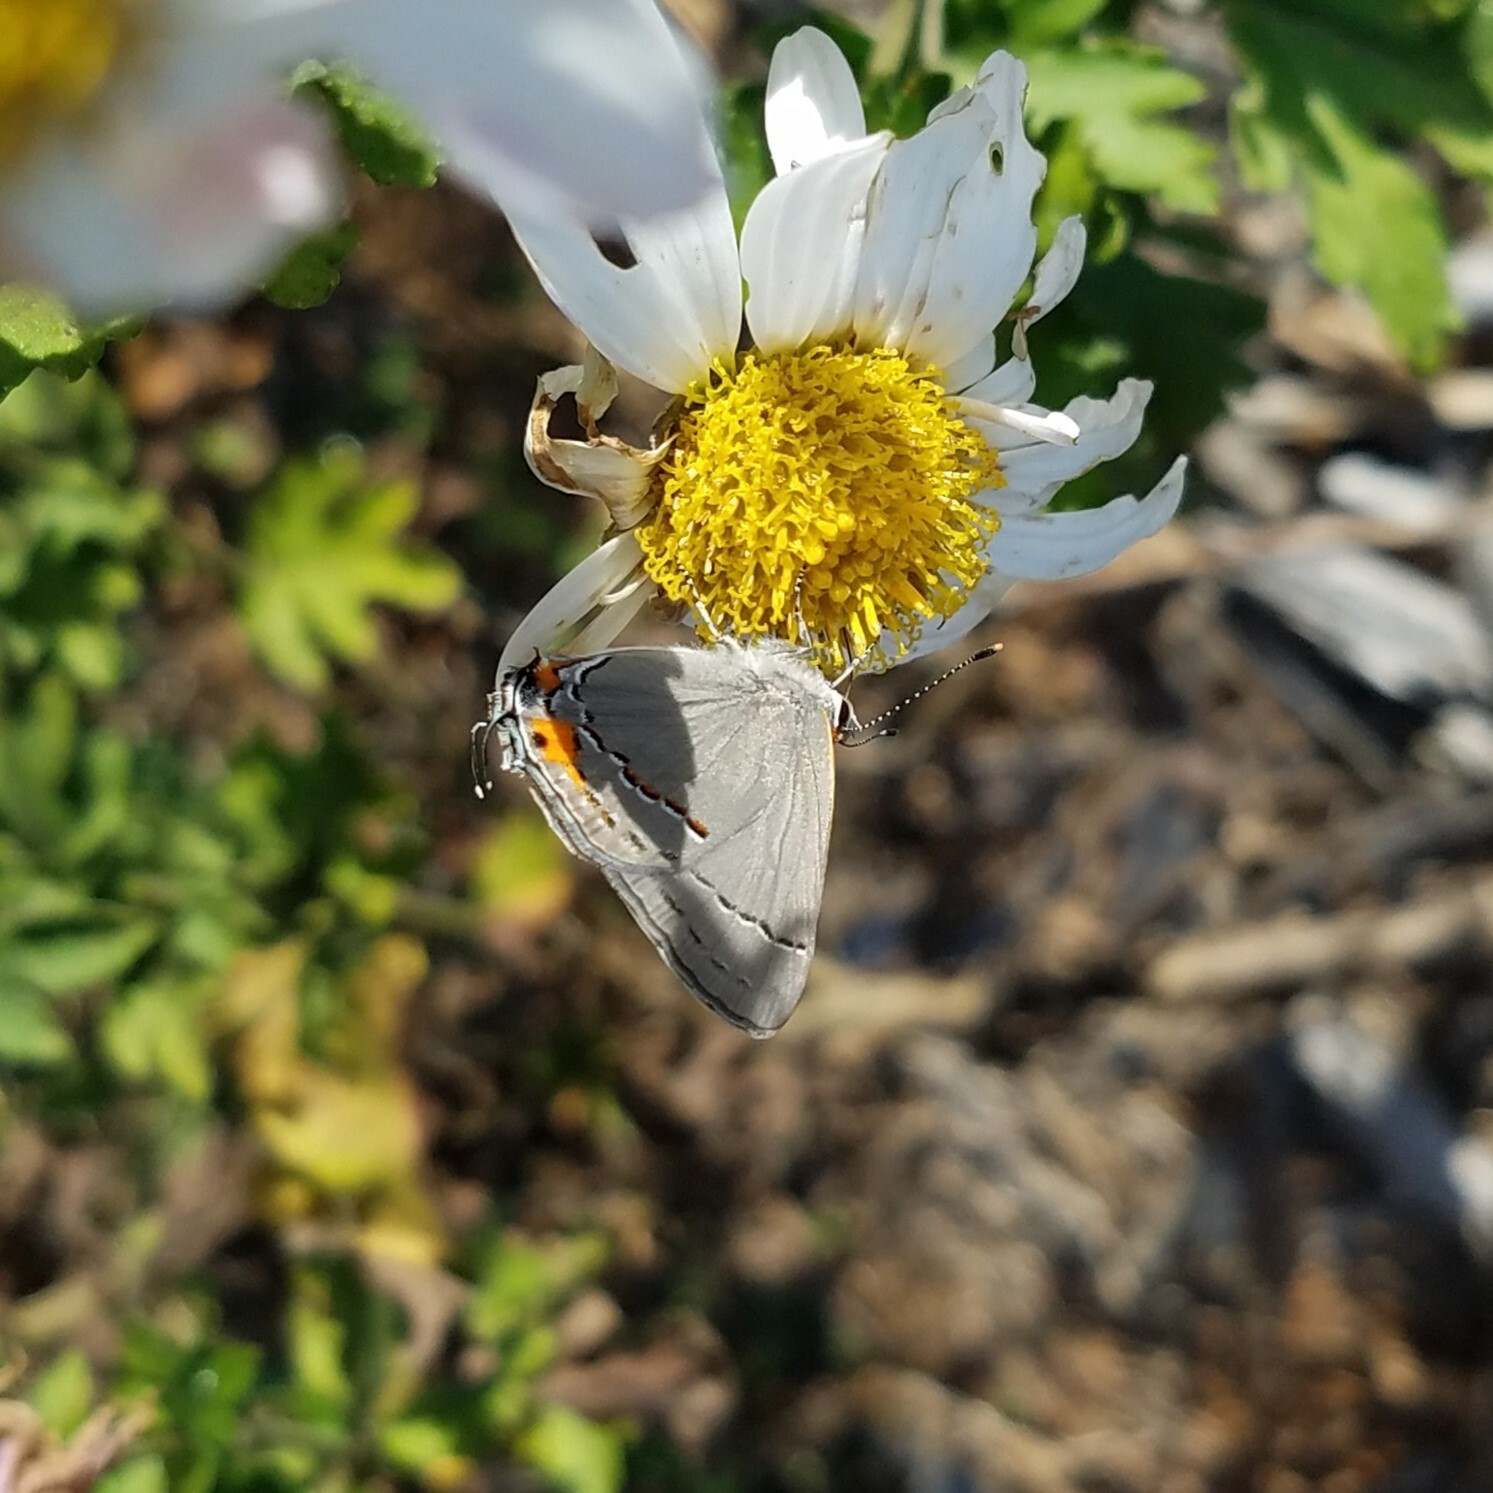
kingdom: Animalia
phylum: Arthropoda
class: Insecta
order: Lepidoptera
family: Lycaenidae
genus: Strymon
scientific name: Strymon melinus
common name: Gray hairstreak
